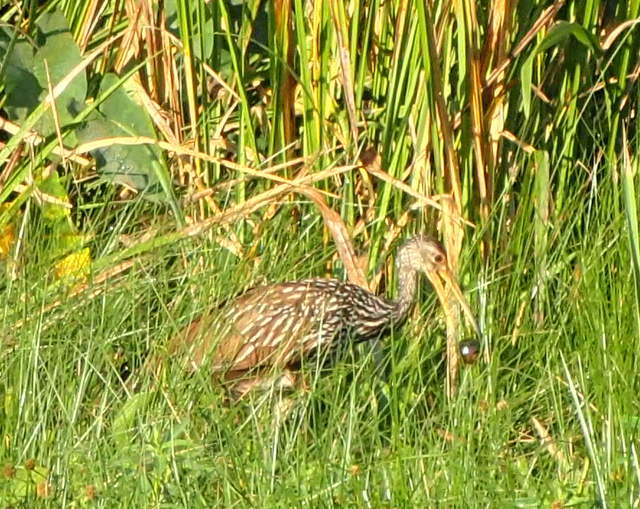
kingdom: Animalia
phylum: Chordata
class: Aves
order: Gruiformes
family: Aramidae
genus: Aramus
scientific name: Aramus guarauna
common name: Limpkin
